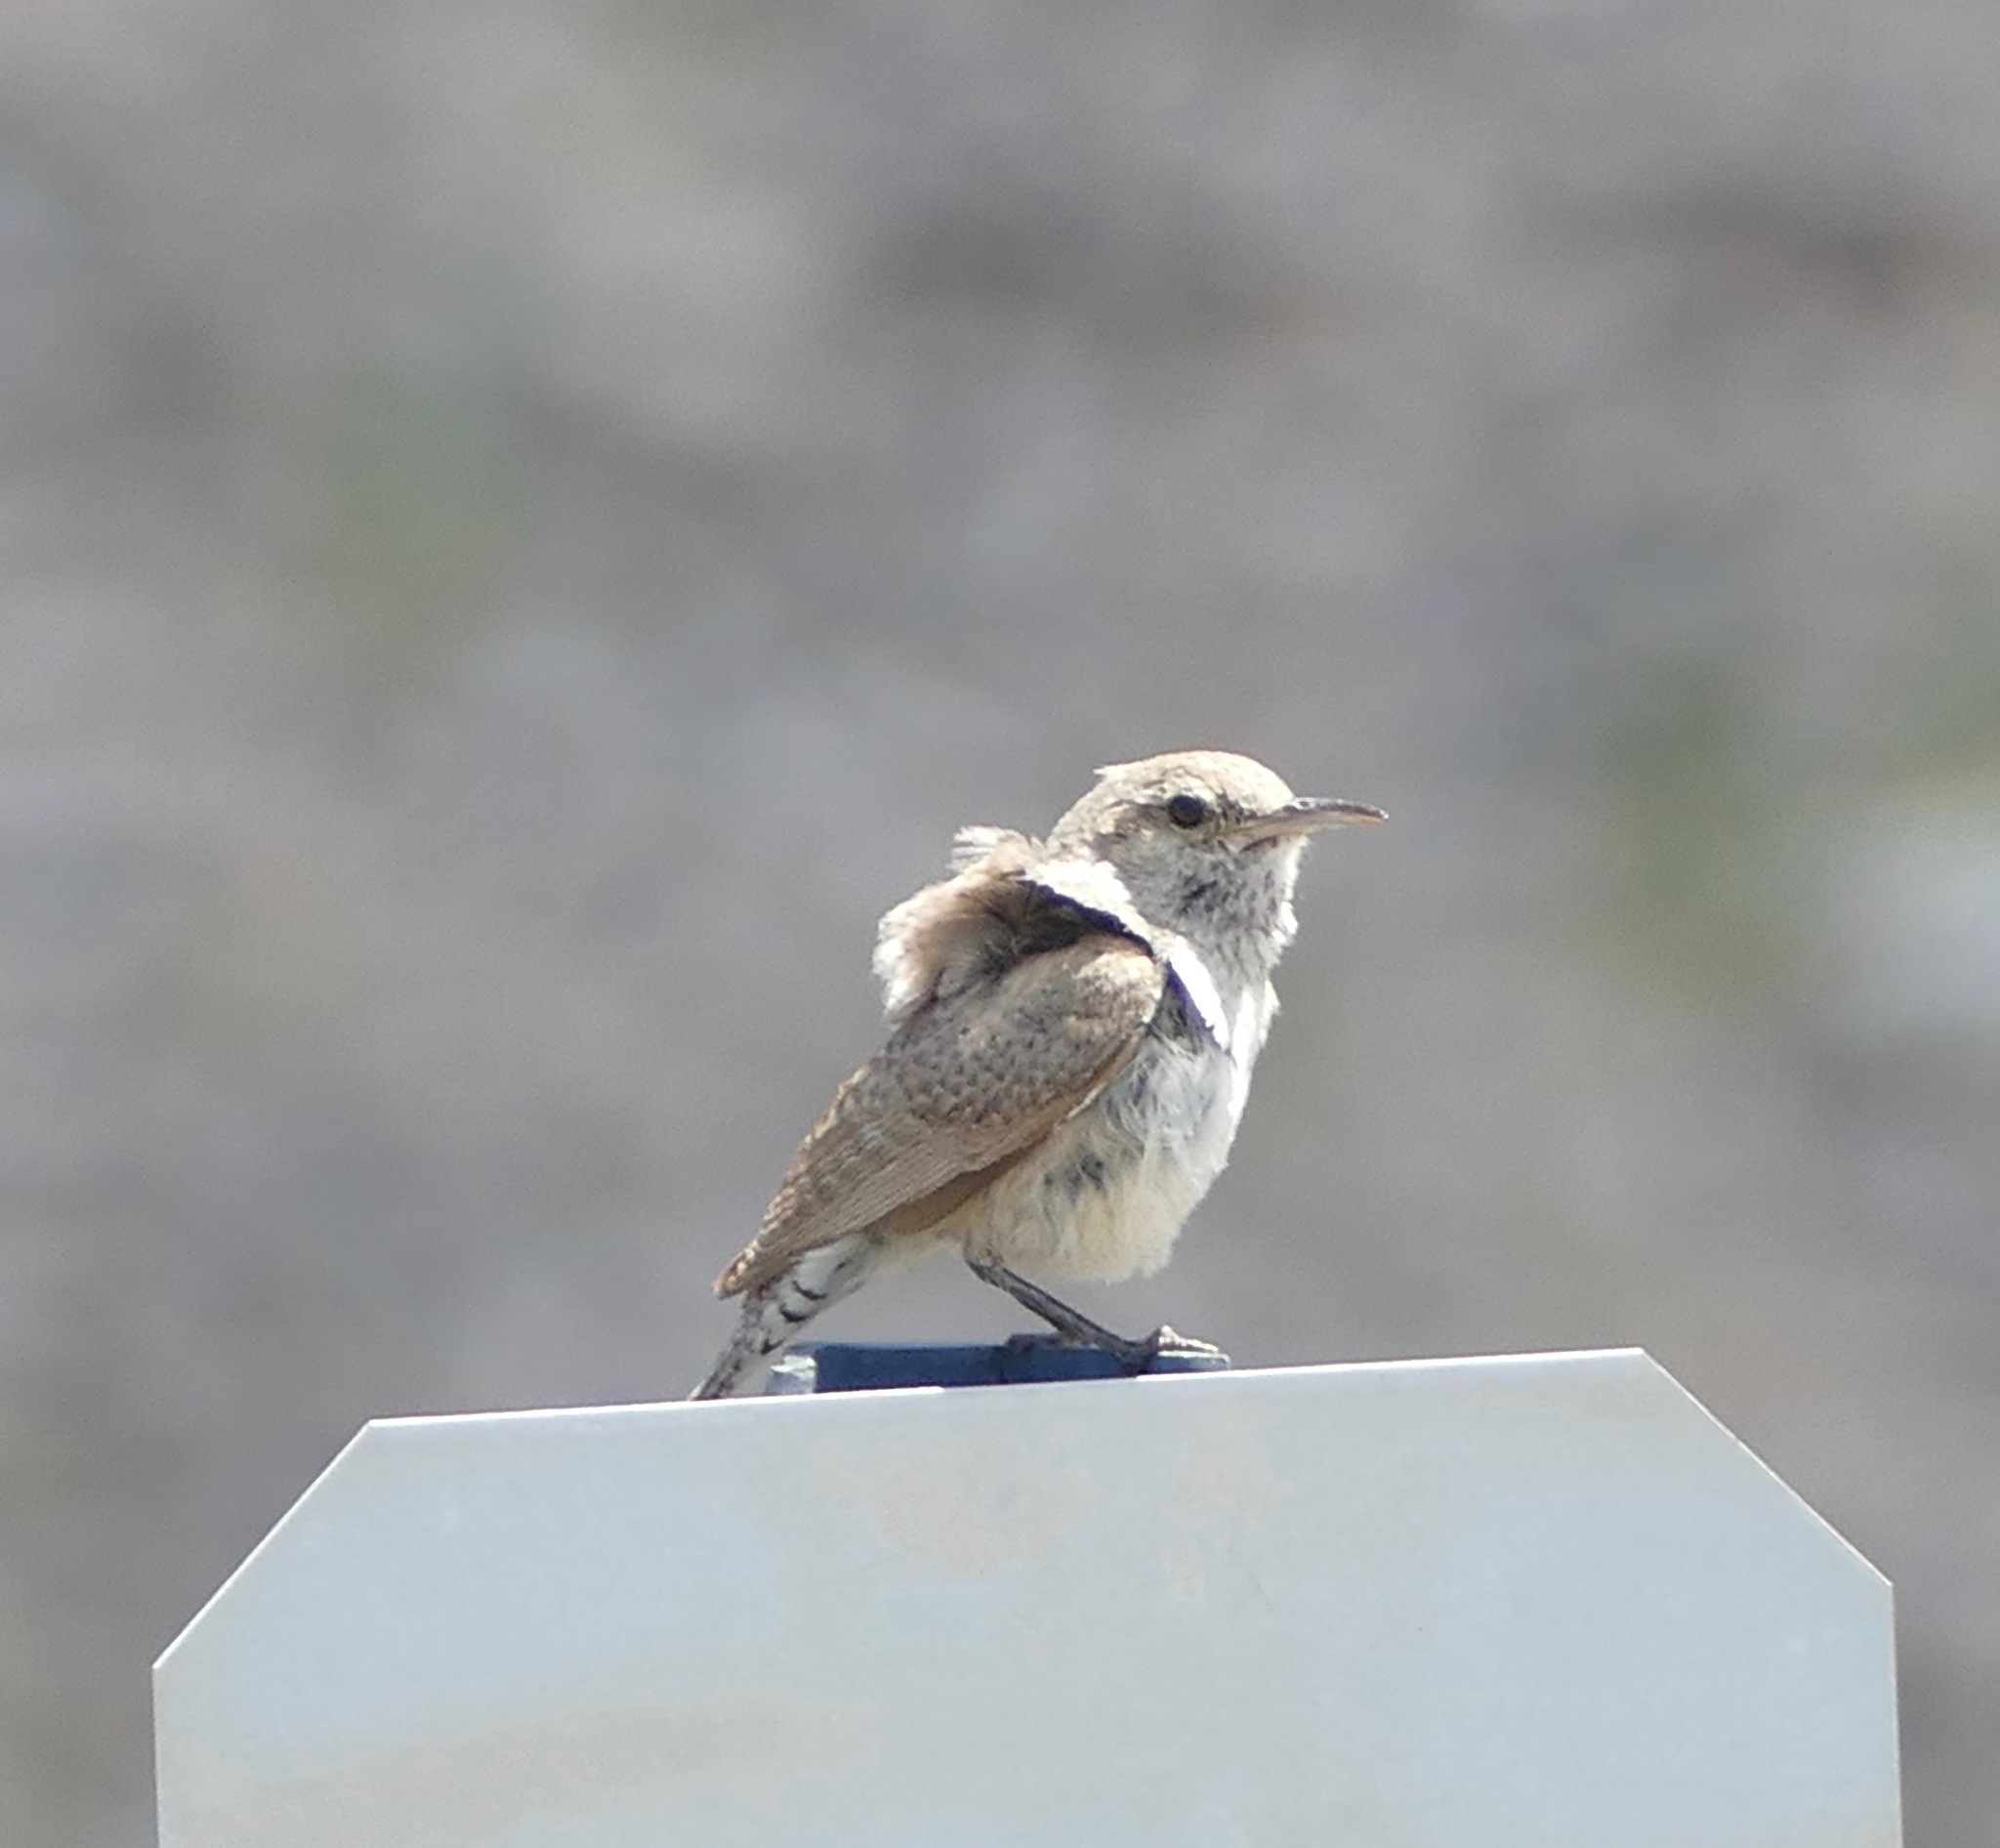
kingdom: Animalia
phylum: Chordata
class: Aves
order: Passeriformes
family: Troglodytidae
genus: Salpinctes
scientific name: Salpinctes obsoletus
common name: Rock wren
